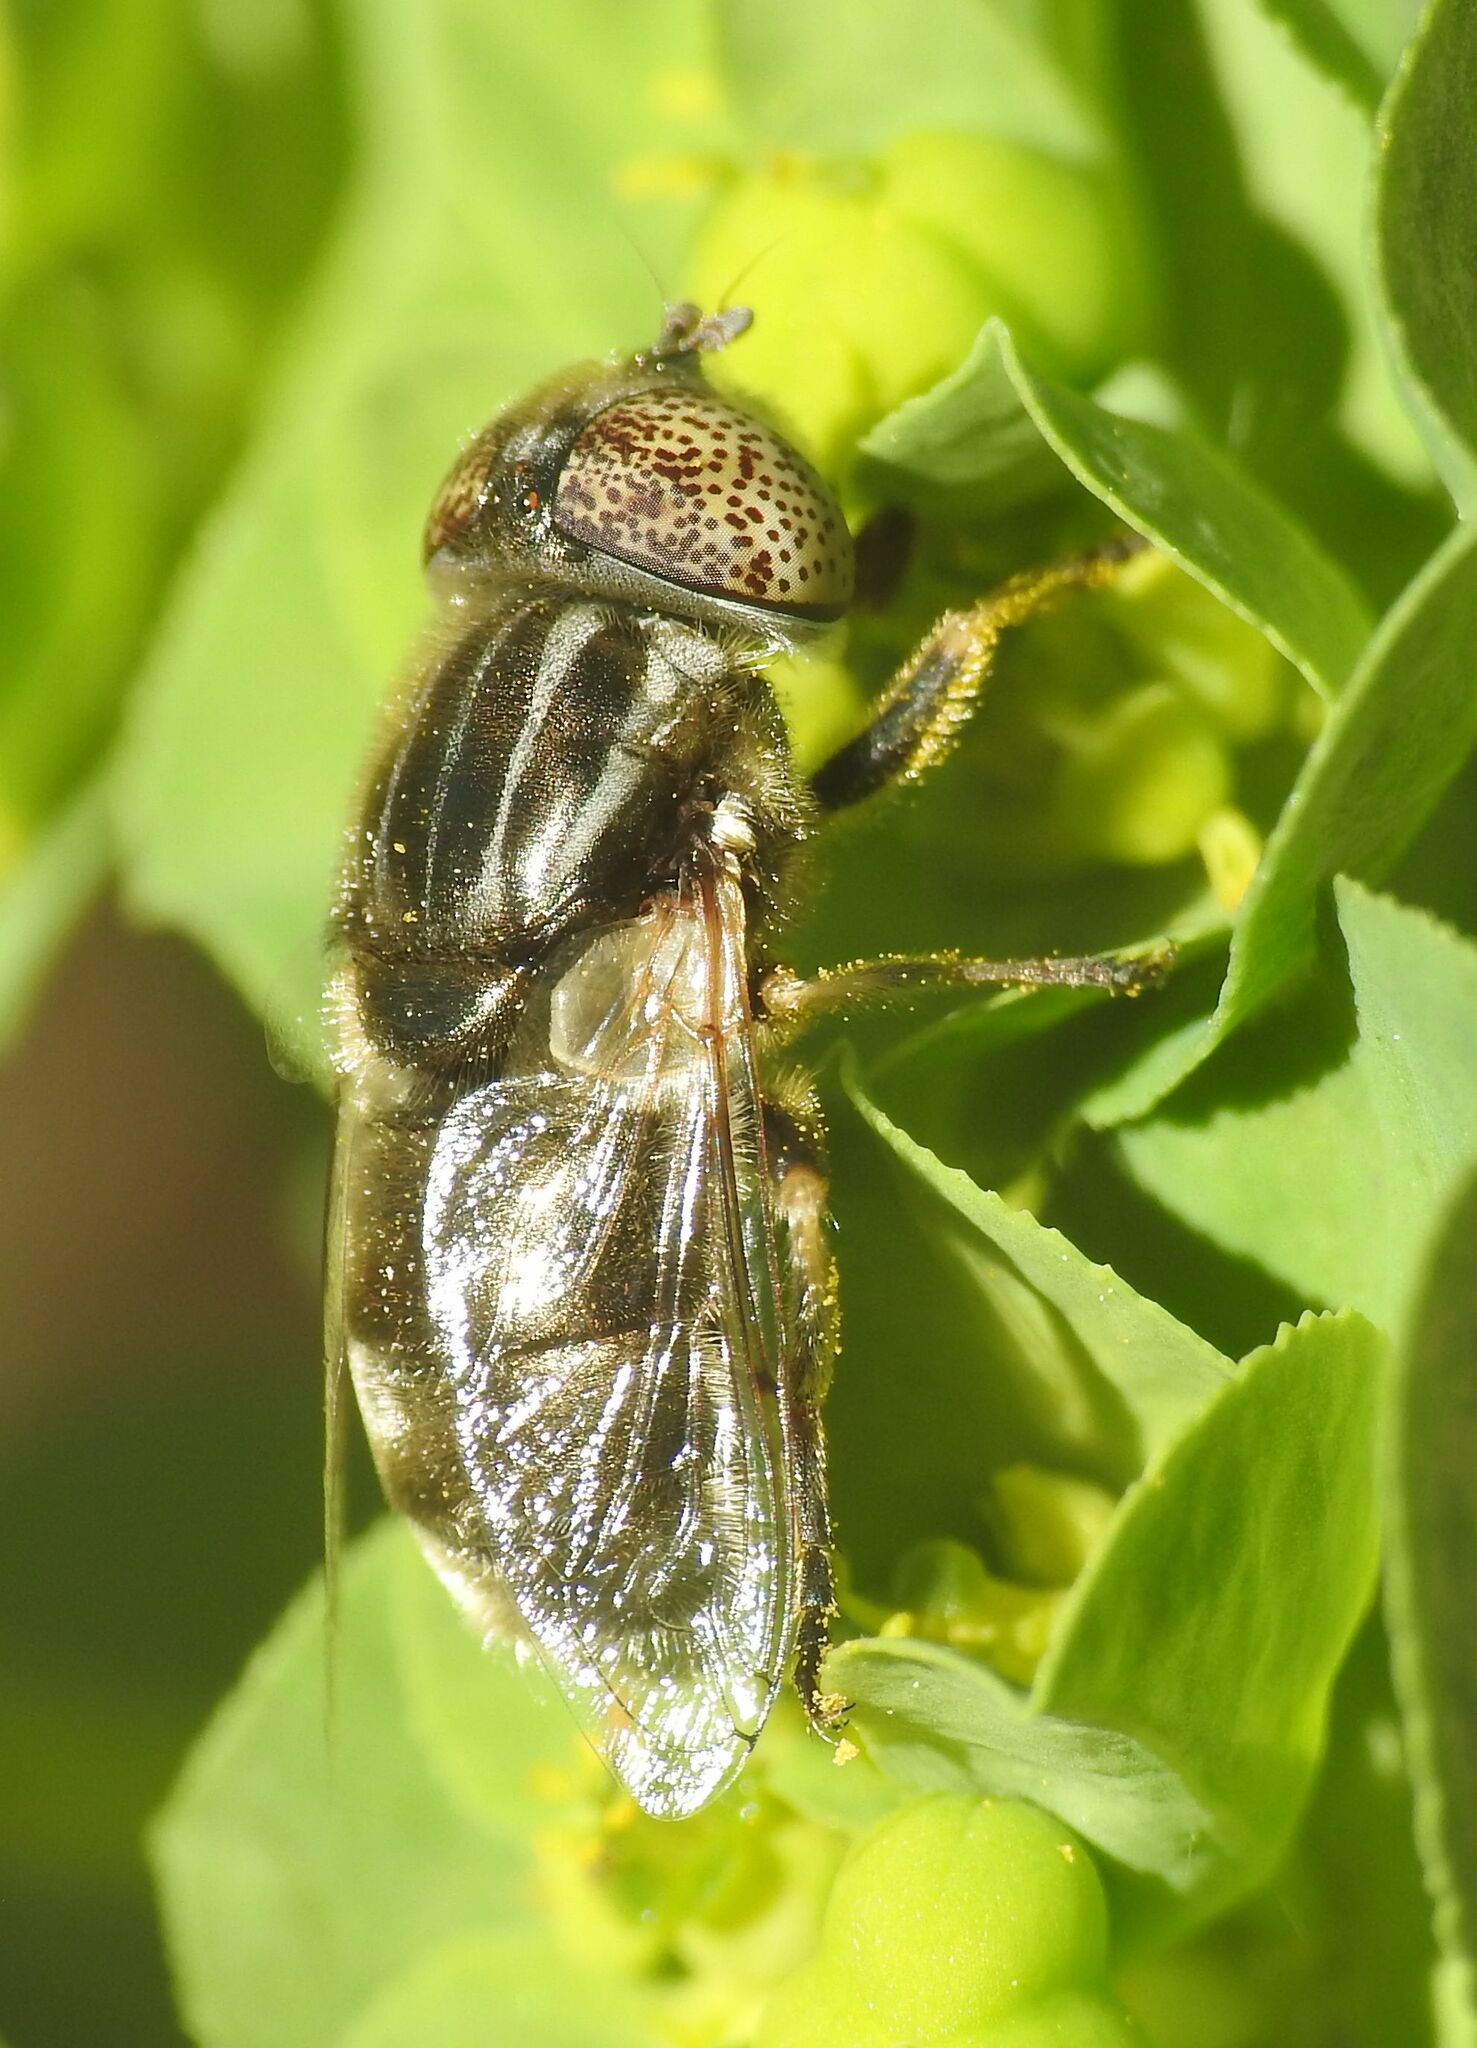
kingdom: Animalia
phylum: Arthropoda
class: Insecta
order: Diptera
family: Syrphidae
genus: Eristalinus
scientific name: Eristalinus aeneus
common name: Syrphid fly
